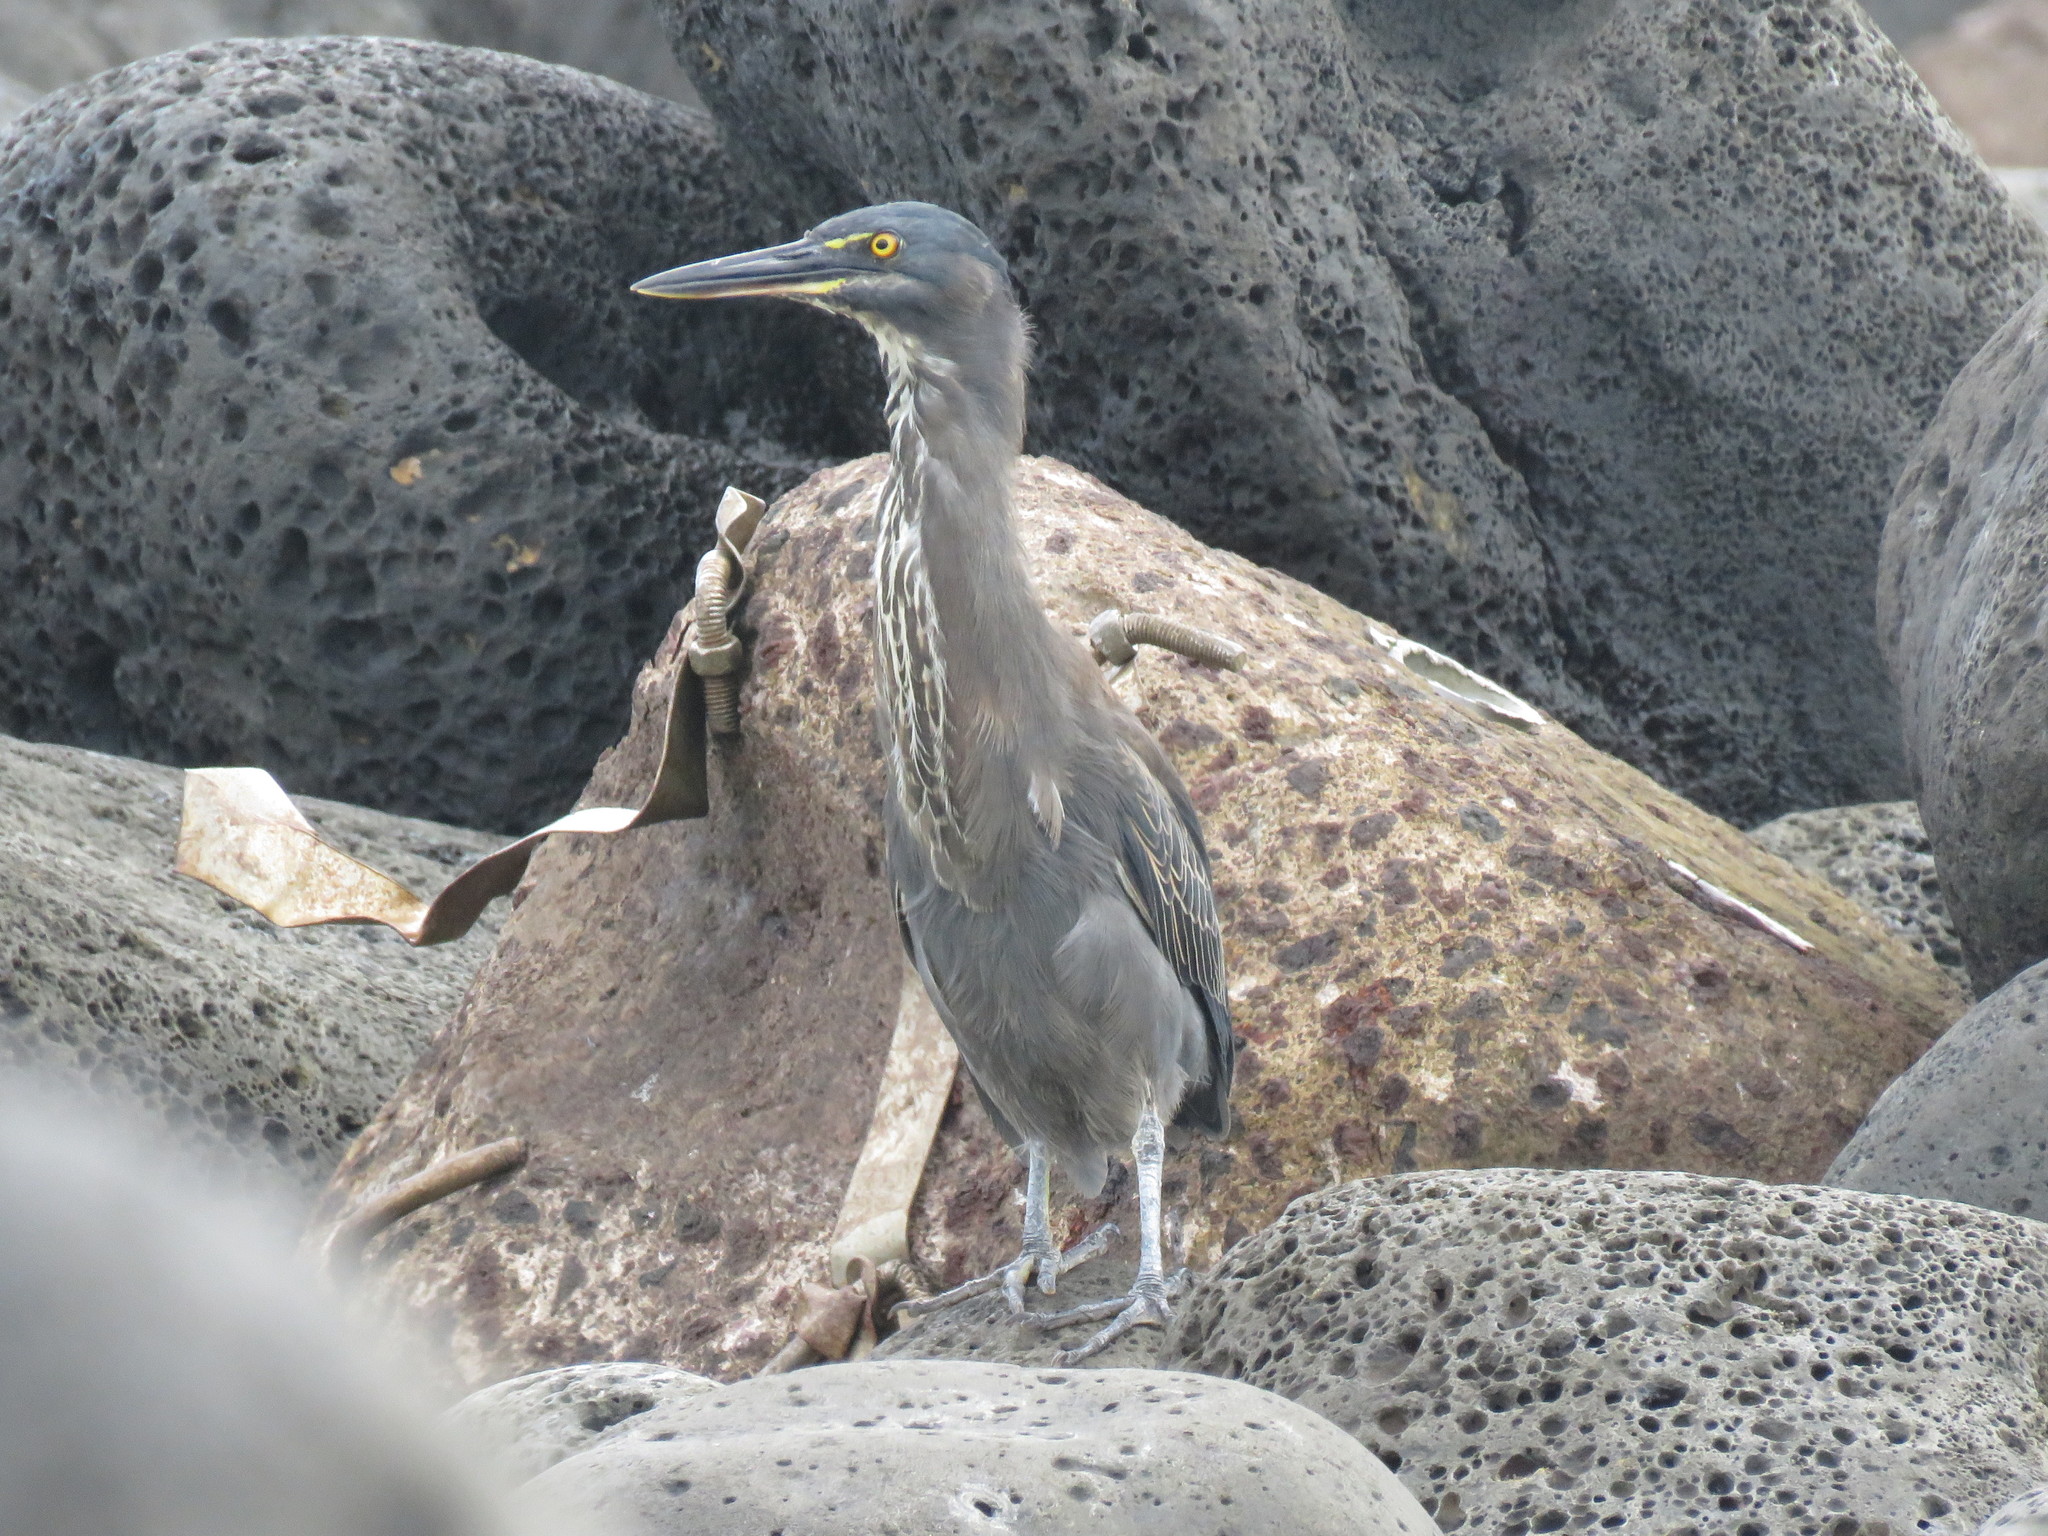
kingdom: Animalia
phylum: Chordata
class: Aves
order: Pelecaniformes
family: Ardeidae
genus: Butorides
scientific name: Butorides striata
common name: Striated heron
